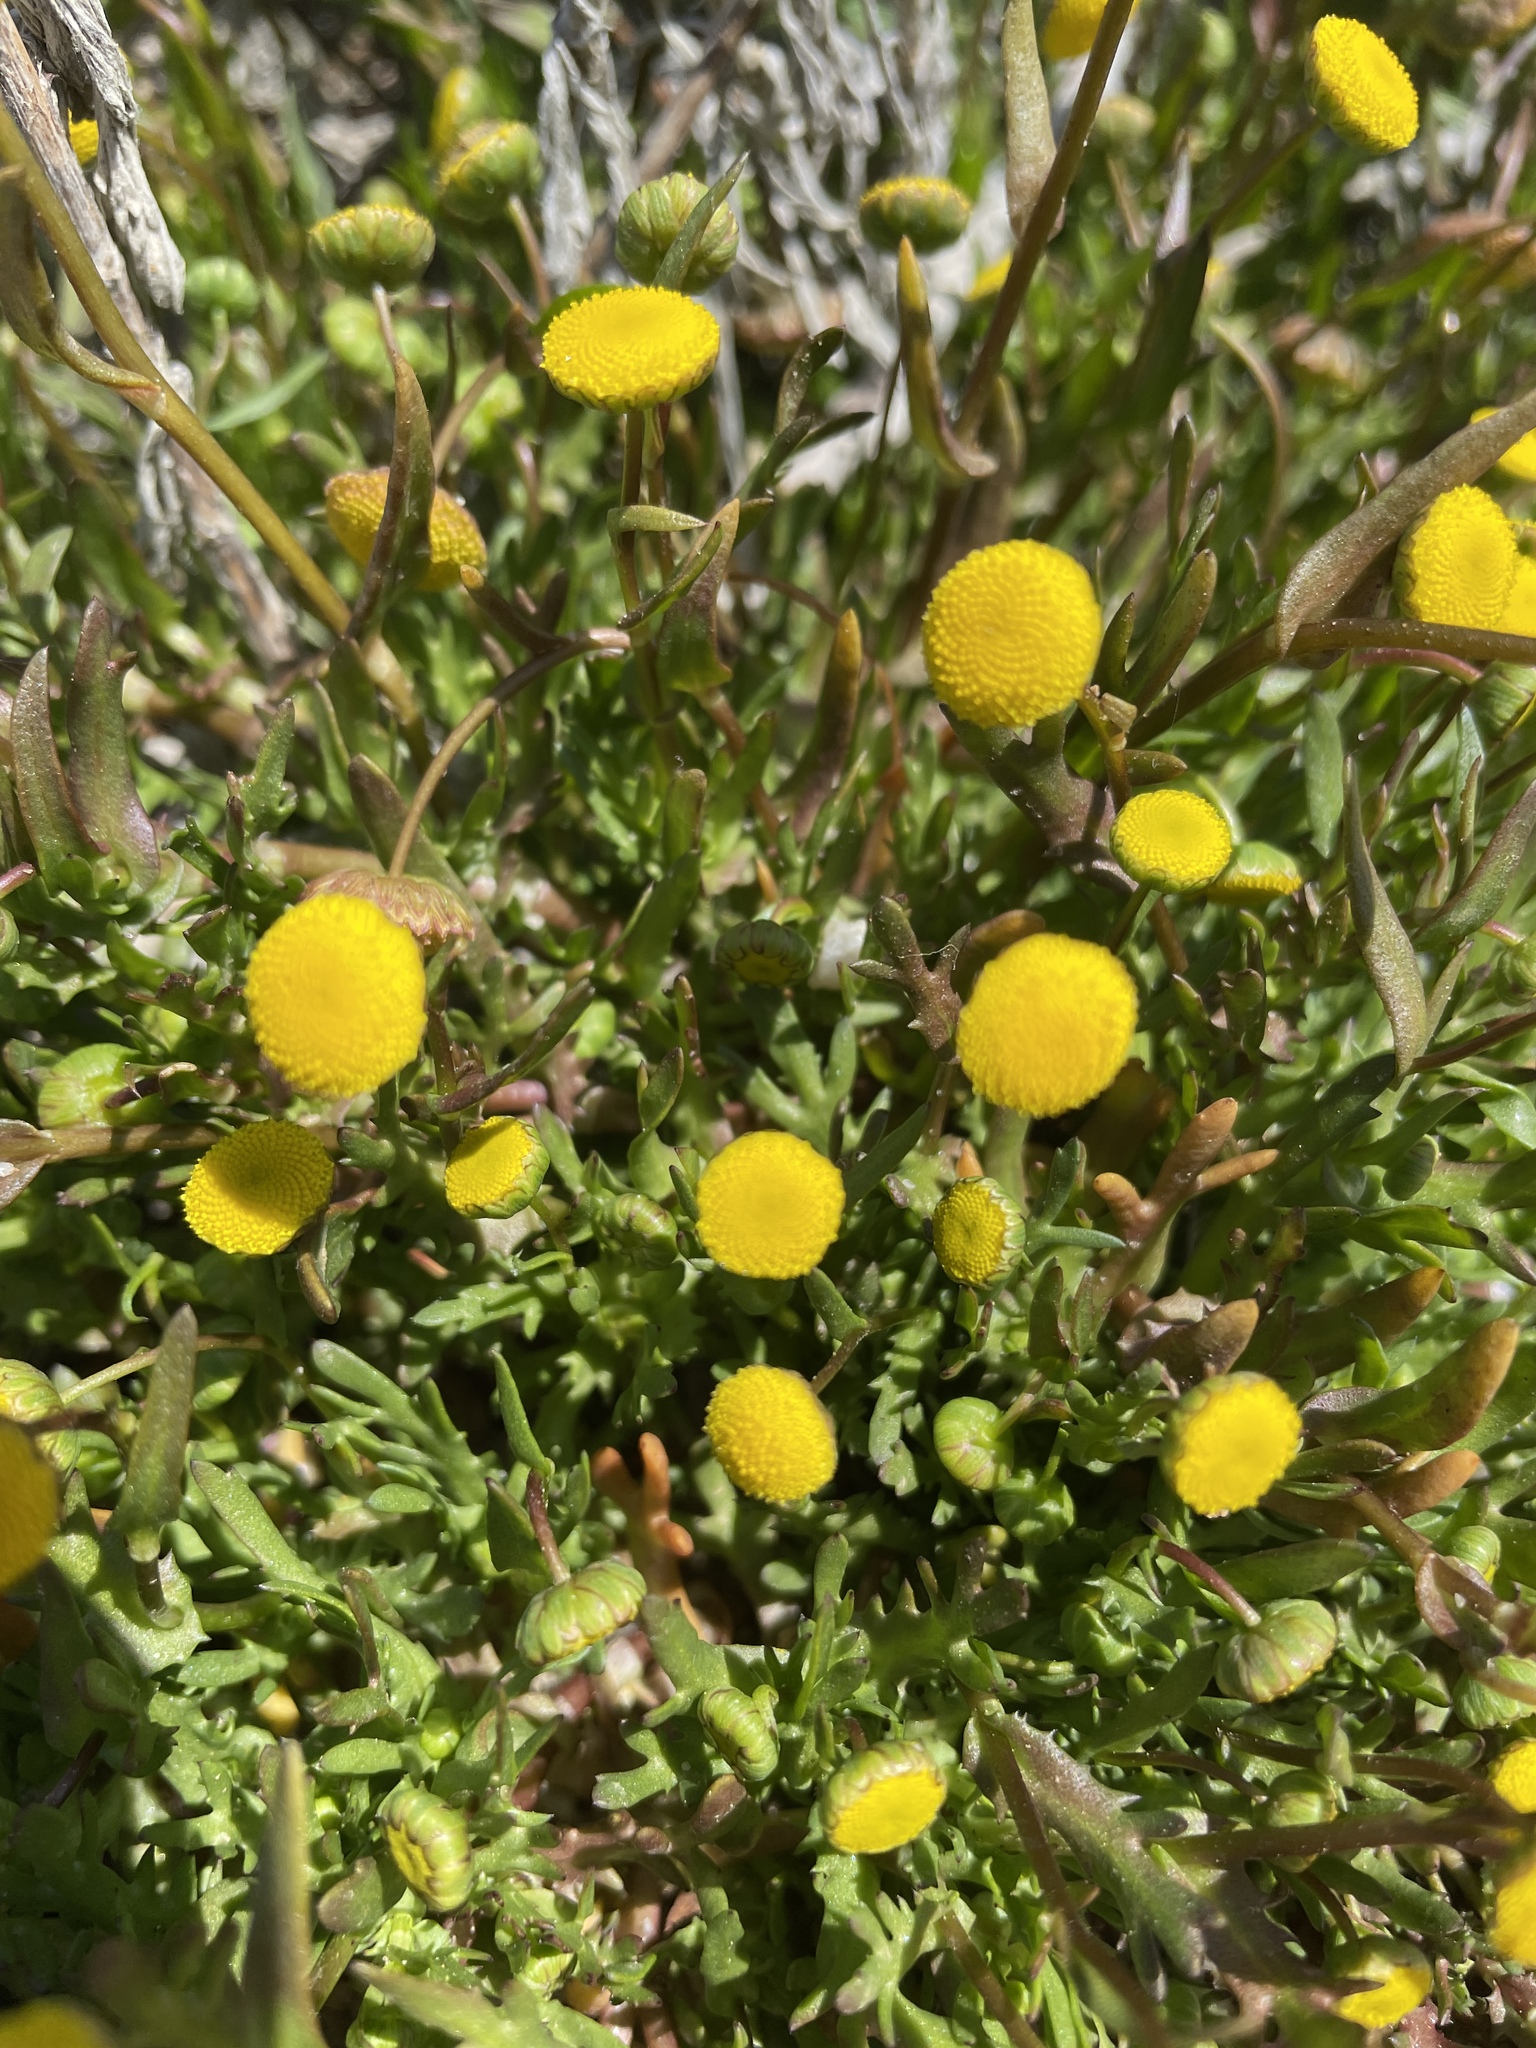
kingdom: Plantae
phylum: Tracheophyta
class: Magnoliopsida
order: Asterales
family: Asteraceae
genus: Cotula
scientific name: Cotula coronopifolia
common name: Buttonweed
